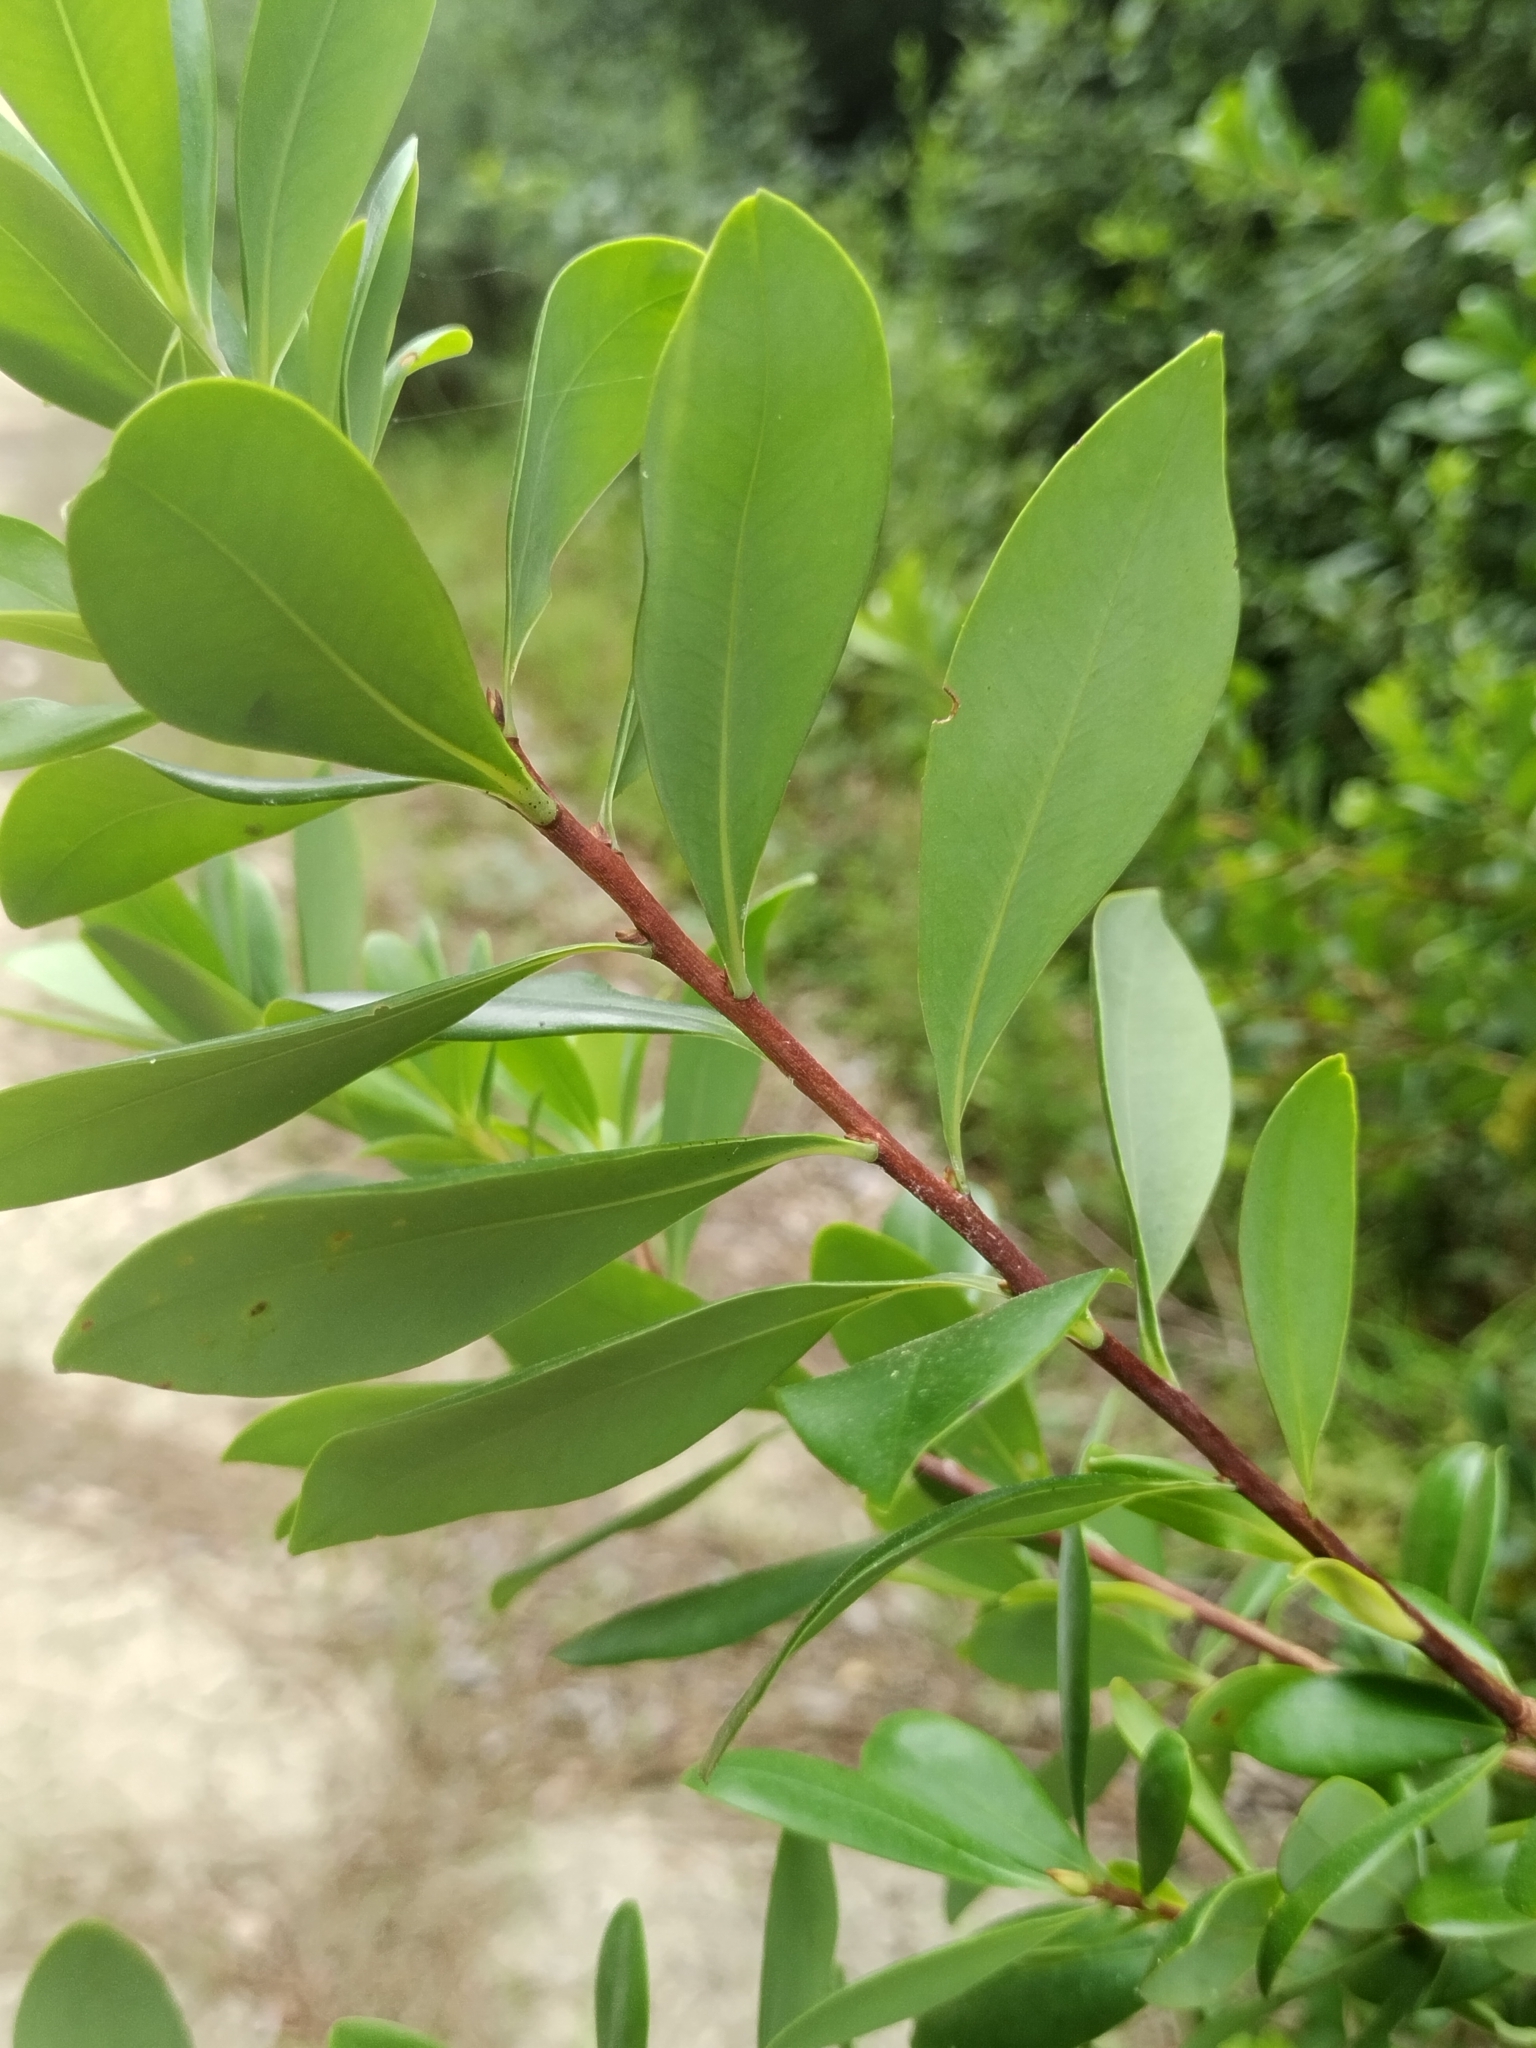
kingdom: Plantae
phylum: Tracheophyta
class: Magnoliopsida
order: Ericales
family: Cyrillaceae
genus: Cliftonia
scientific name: Cliftonia monophylla
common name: Titi
